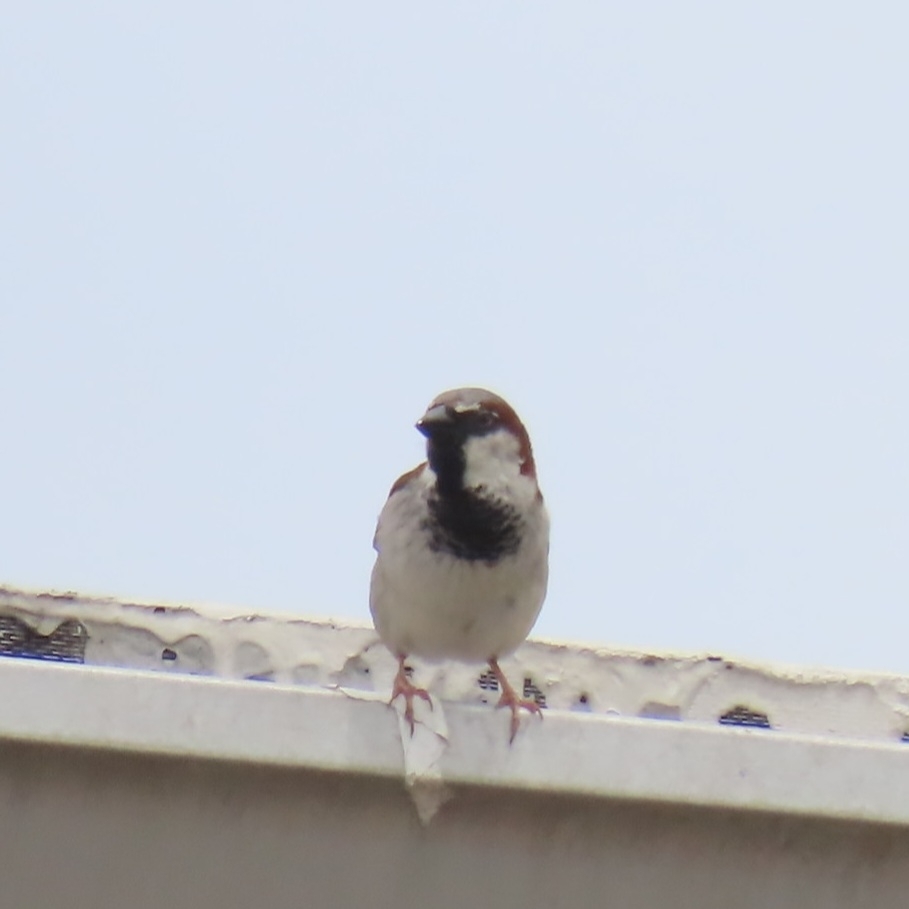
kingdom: Animalia
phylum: Chordata
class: Aves
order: Passeriformes
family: Passeridae
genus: Passer
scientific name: Passer domesticus
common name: House sparrow
